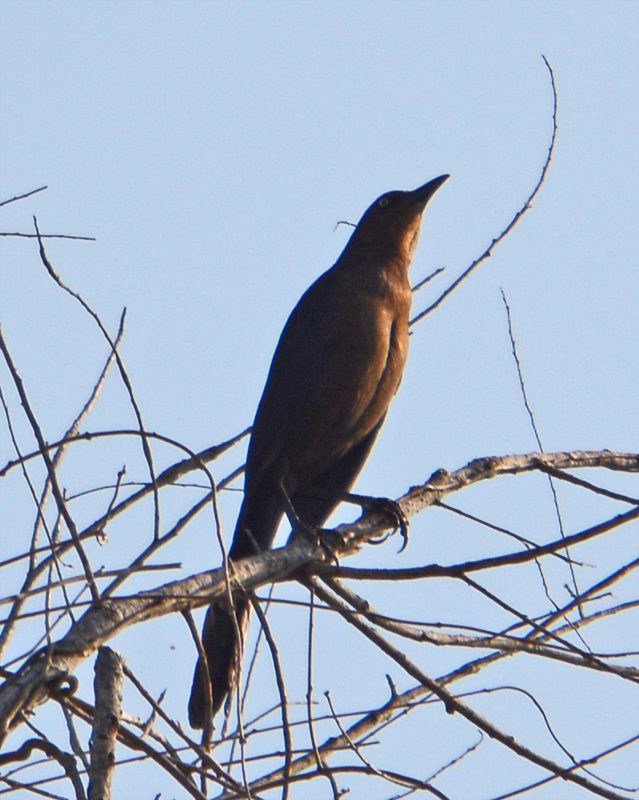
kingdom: Animalia
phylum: Chordata
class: Aves
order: Passeriformes
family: Icteridae
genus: Quiscalus
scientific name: Quiscalus mexicanus
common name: Great-tailed grackle
